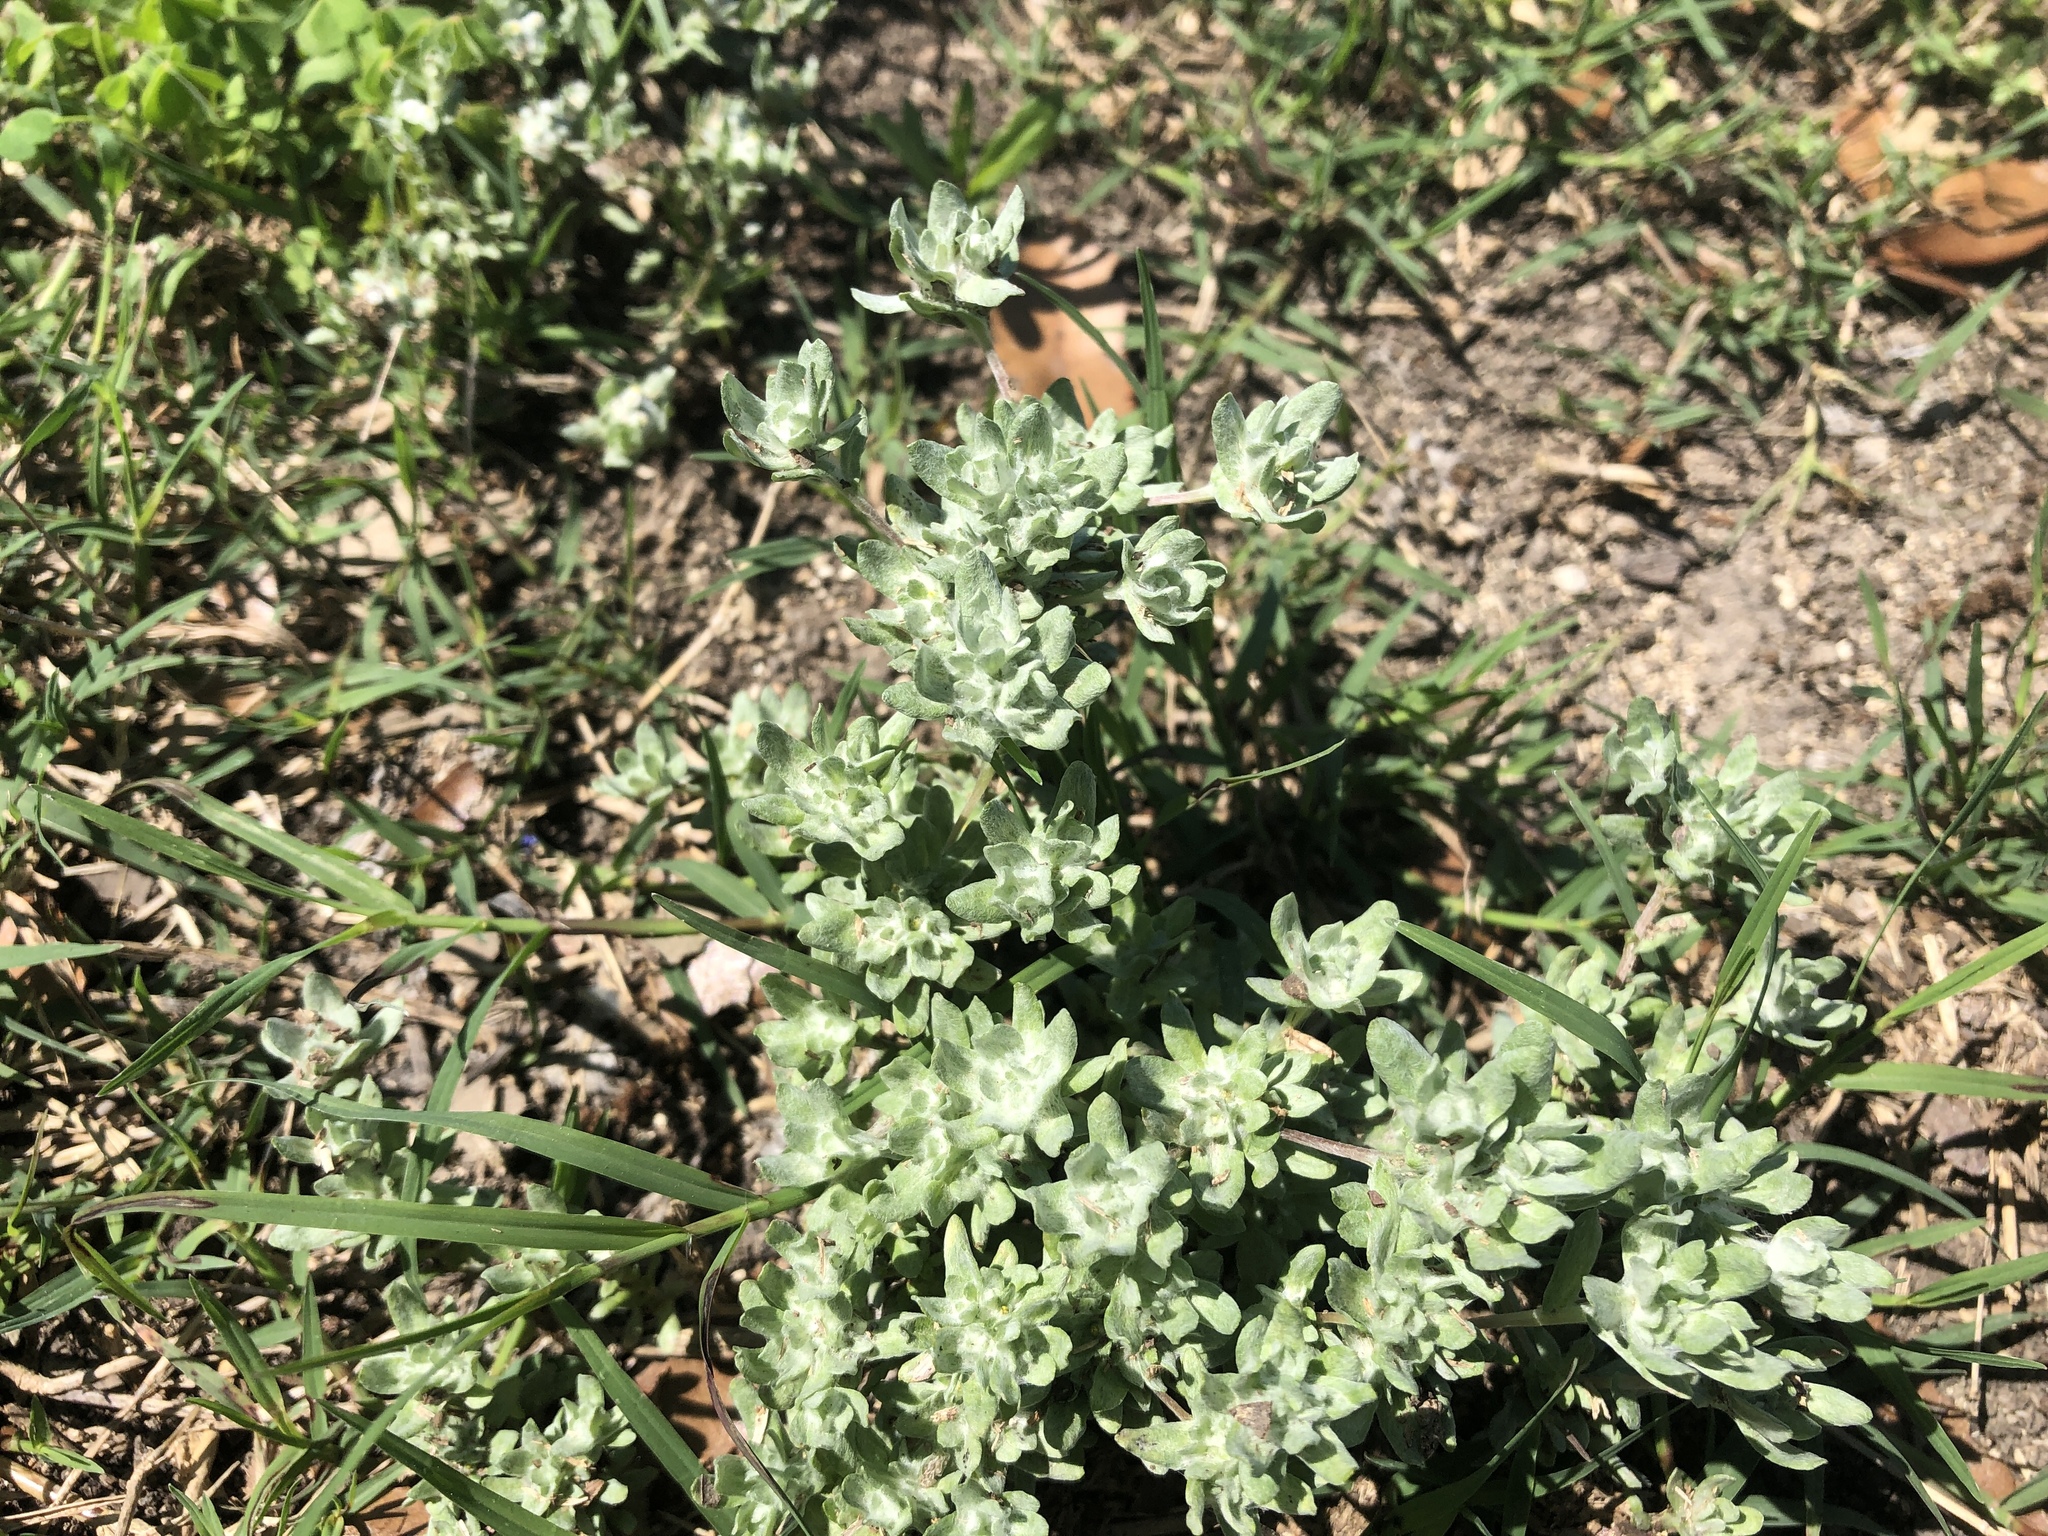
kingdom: Plantae
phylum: Tracheophyta
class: Magnoliopsida
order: Asterales
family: Asteraceae
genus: Diaperia
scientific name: Diaperia prolifera
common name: Big-head rabbit-tobacco
